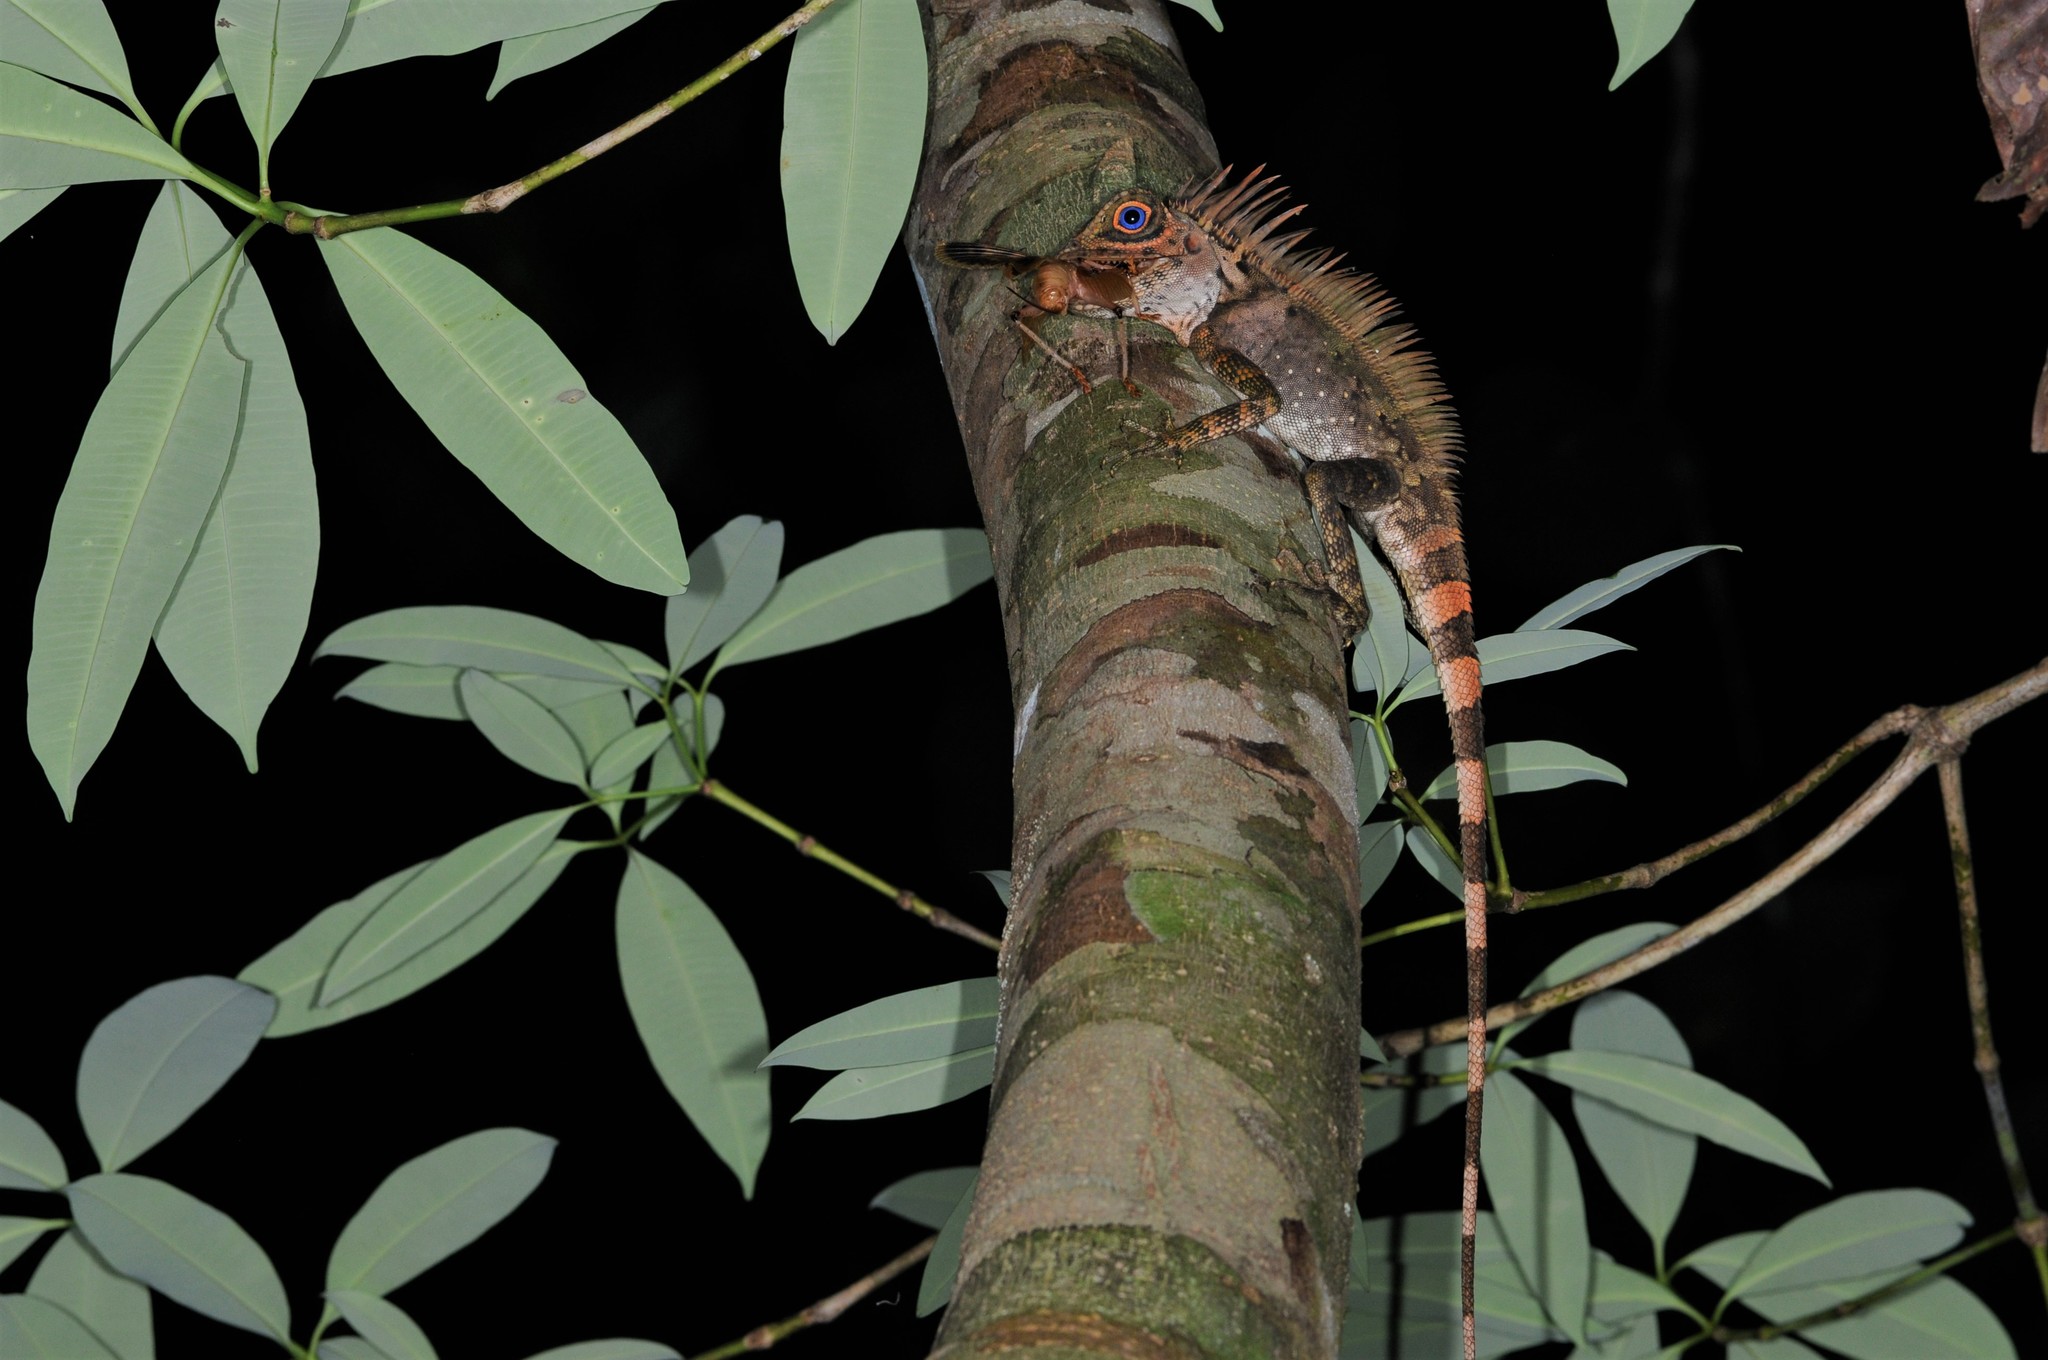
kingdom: Animalia
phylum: Chordata
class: Squamata
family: Agamidae
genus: Gonocephalus
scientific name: Gonocephalus liogaster
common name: Blue-eyed anglehead lizard
